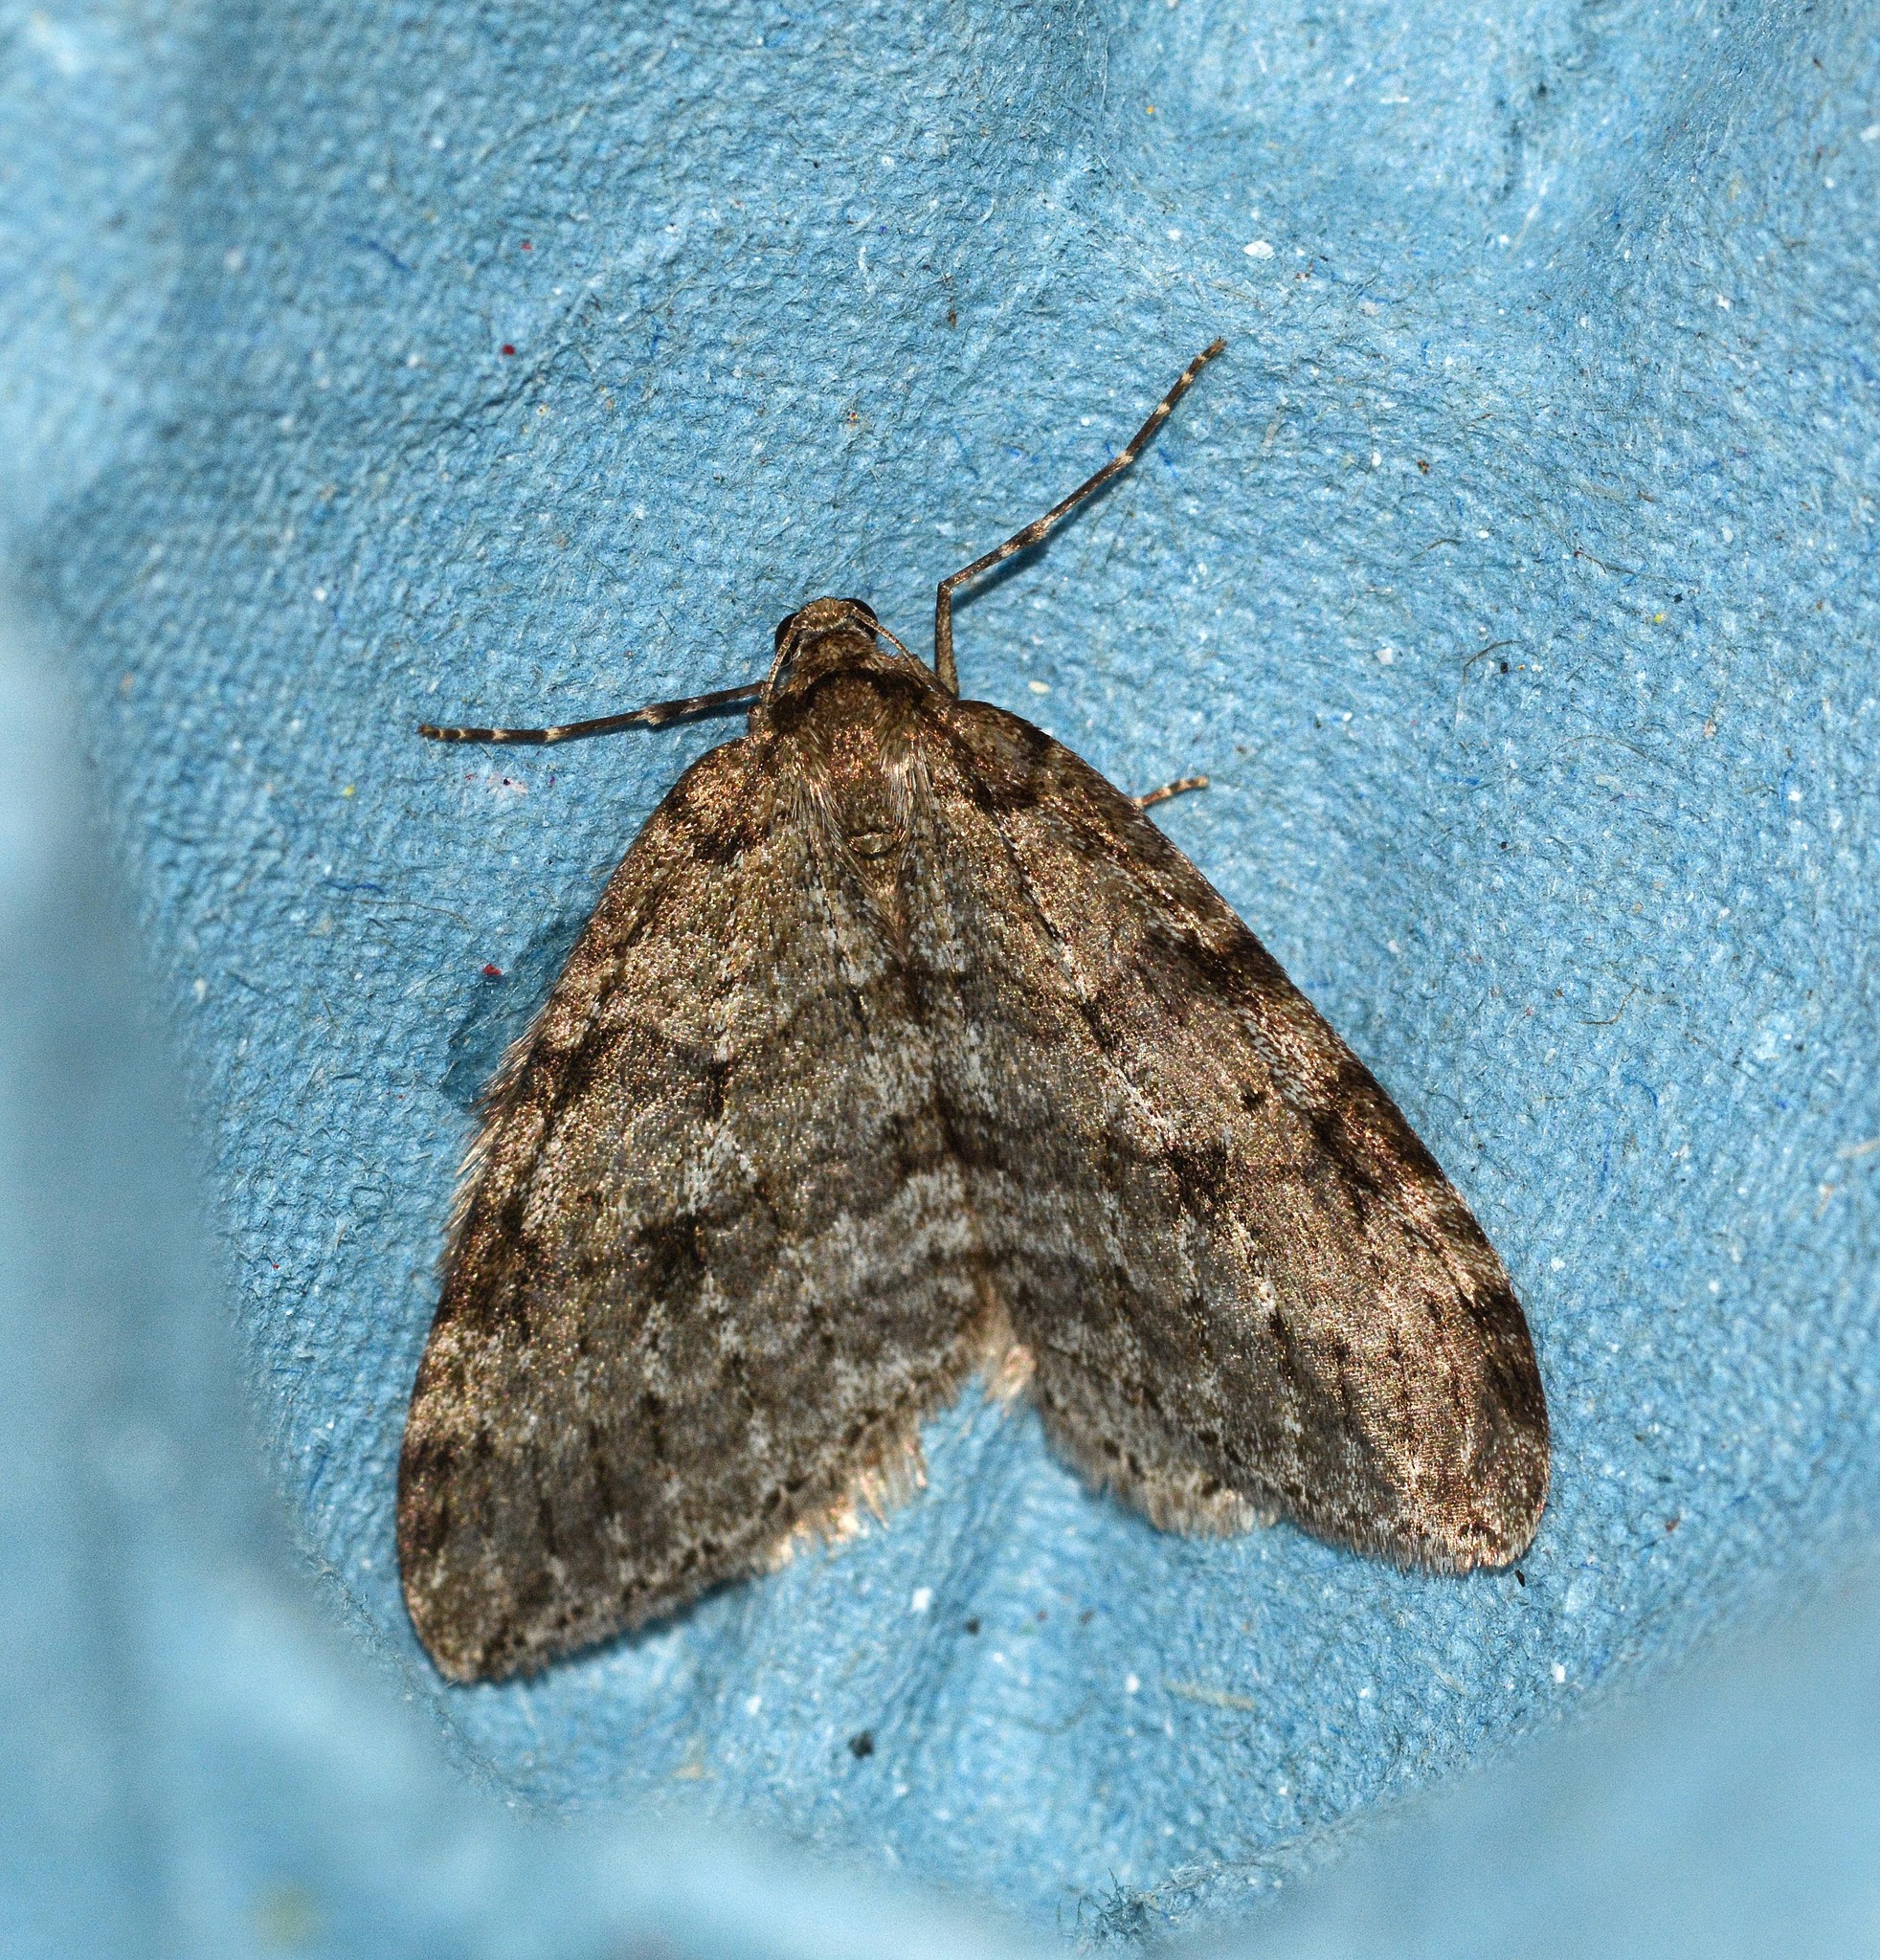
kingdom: Animalia
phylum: Arthropoda
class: Insecta
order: Lepidoptera
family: Geometridae
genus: Epirrita
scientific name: Epirrita
